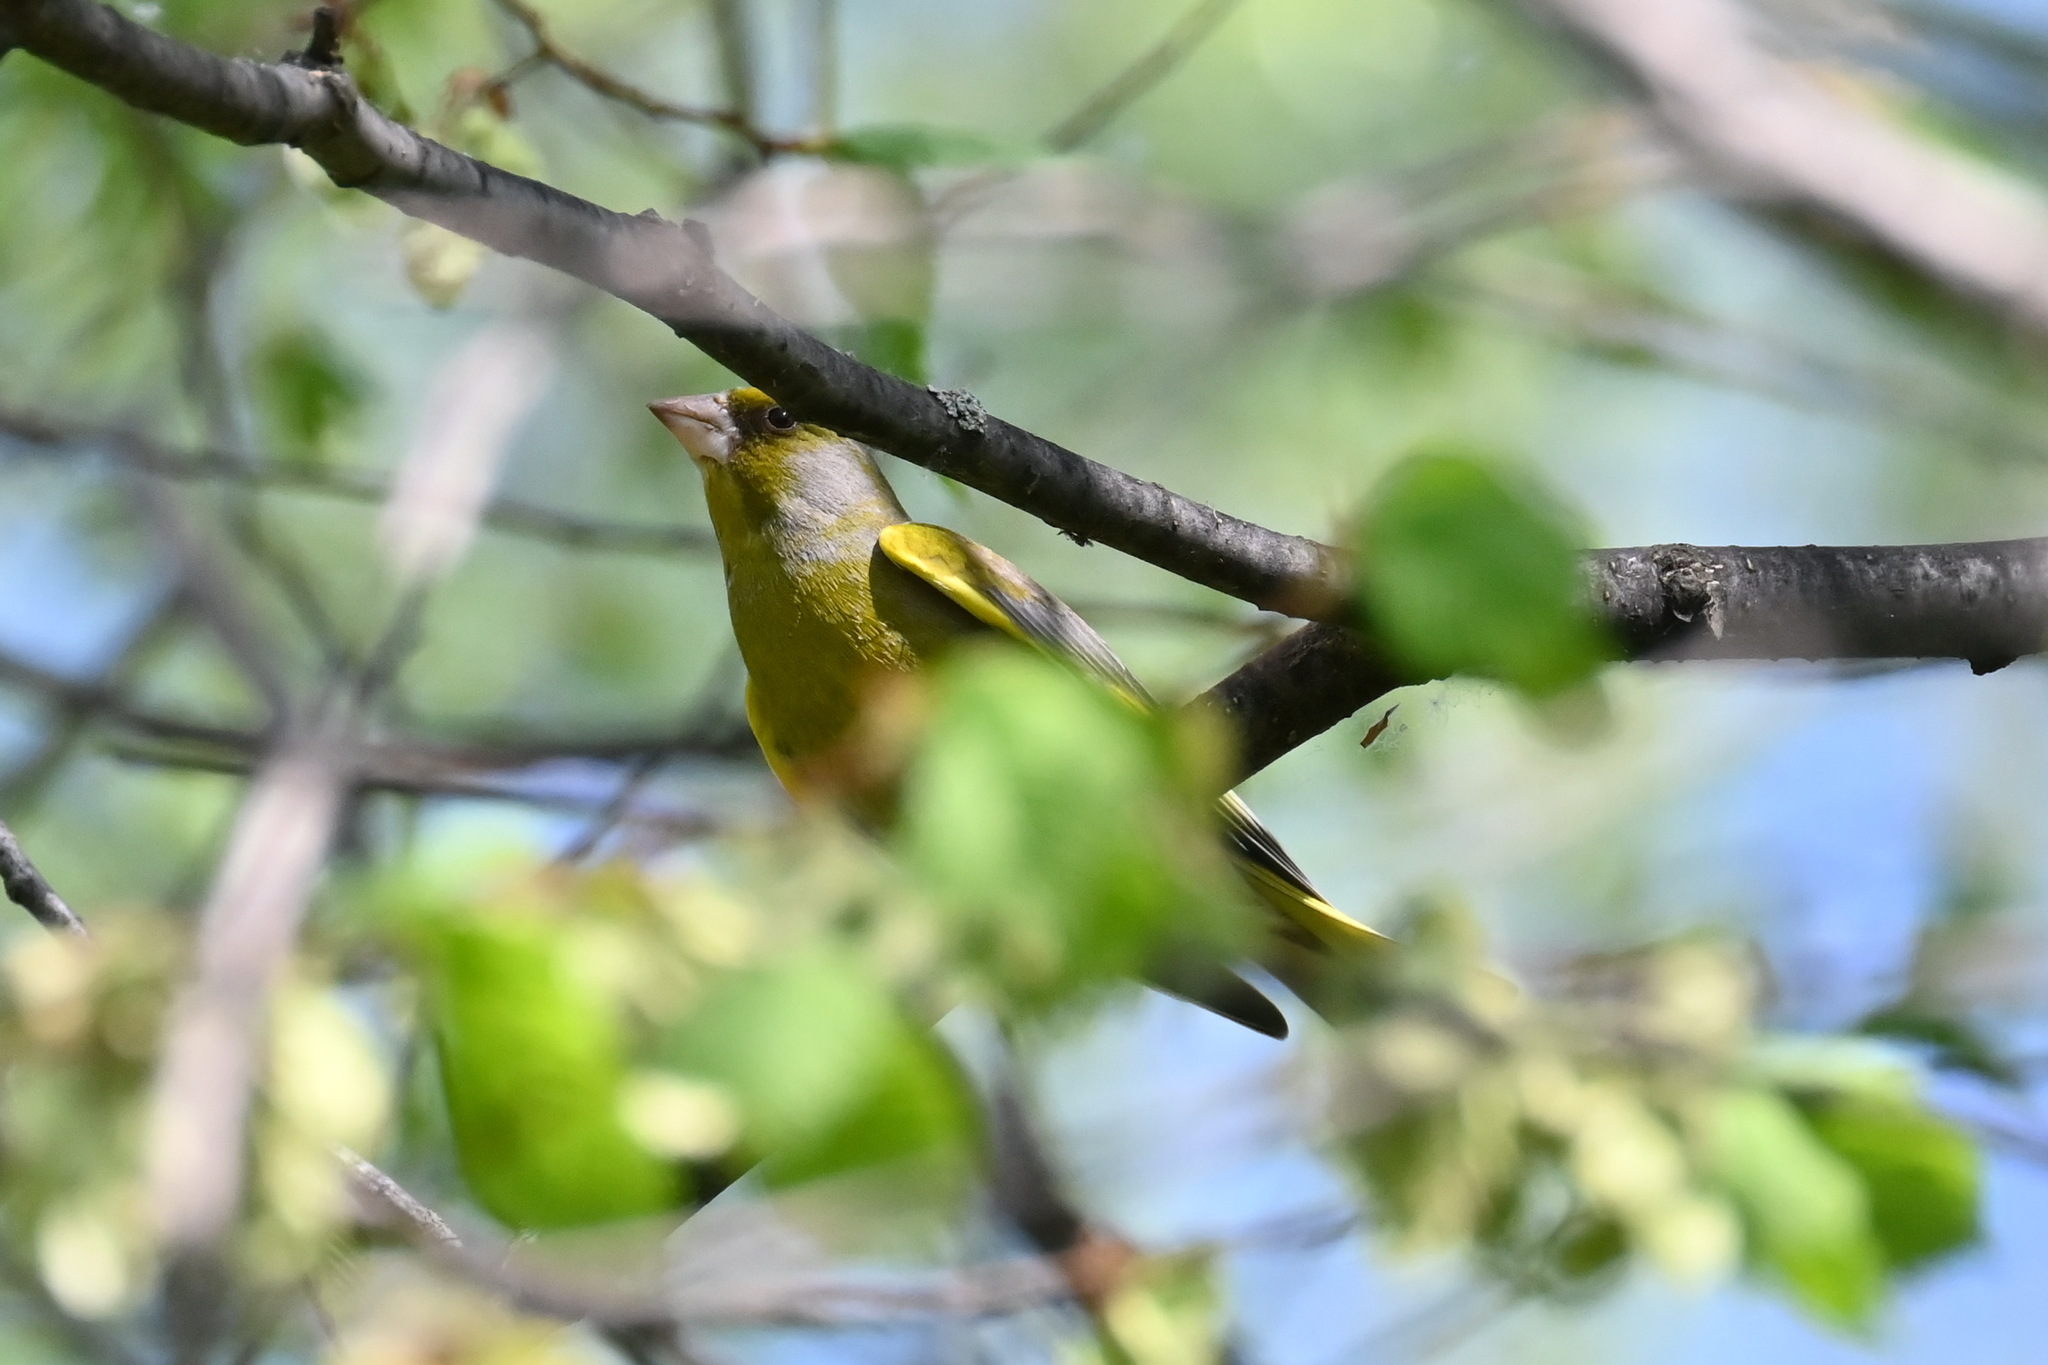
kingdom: Plantae
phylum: Tracheophyta
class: Liliopsida
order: Poales
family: Poaceae
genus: Chloris
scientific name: Chloris chloris
